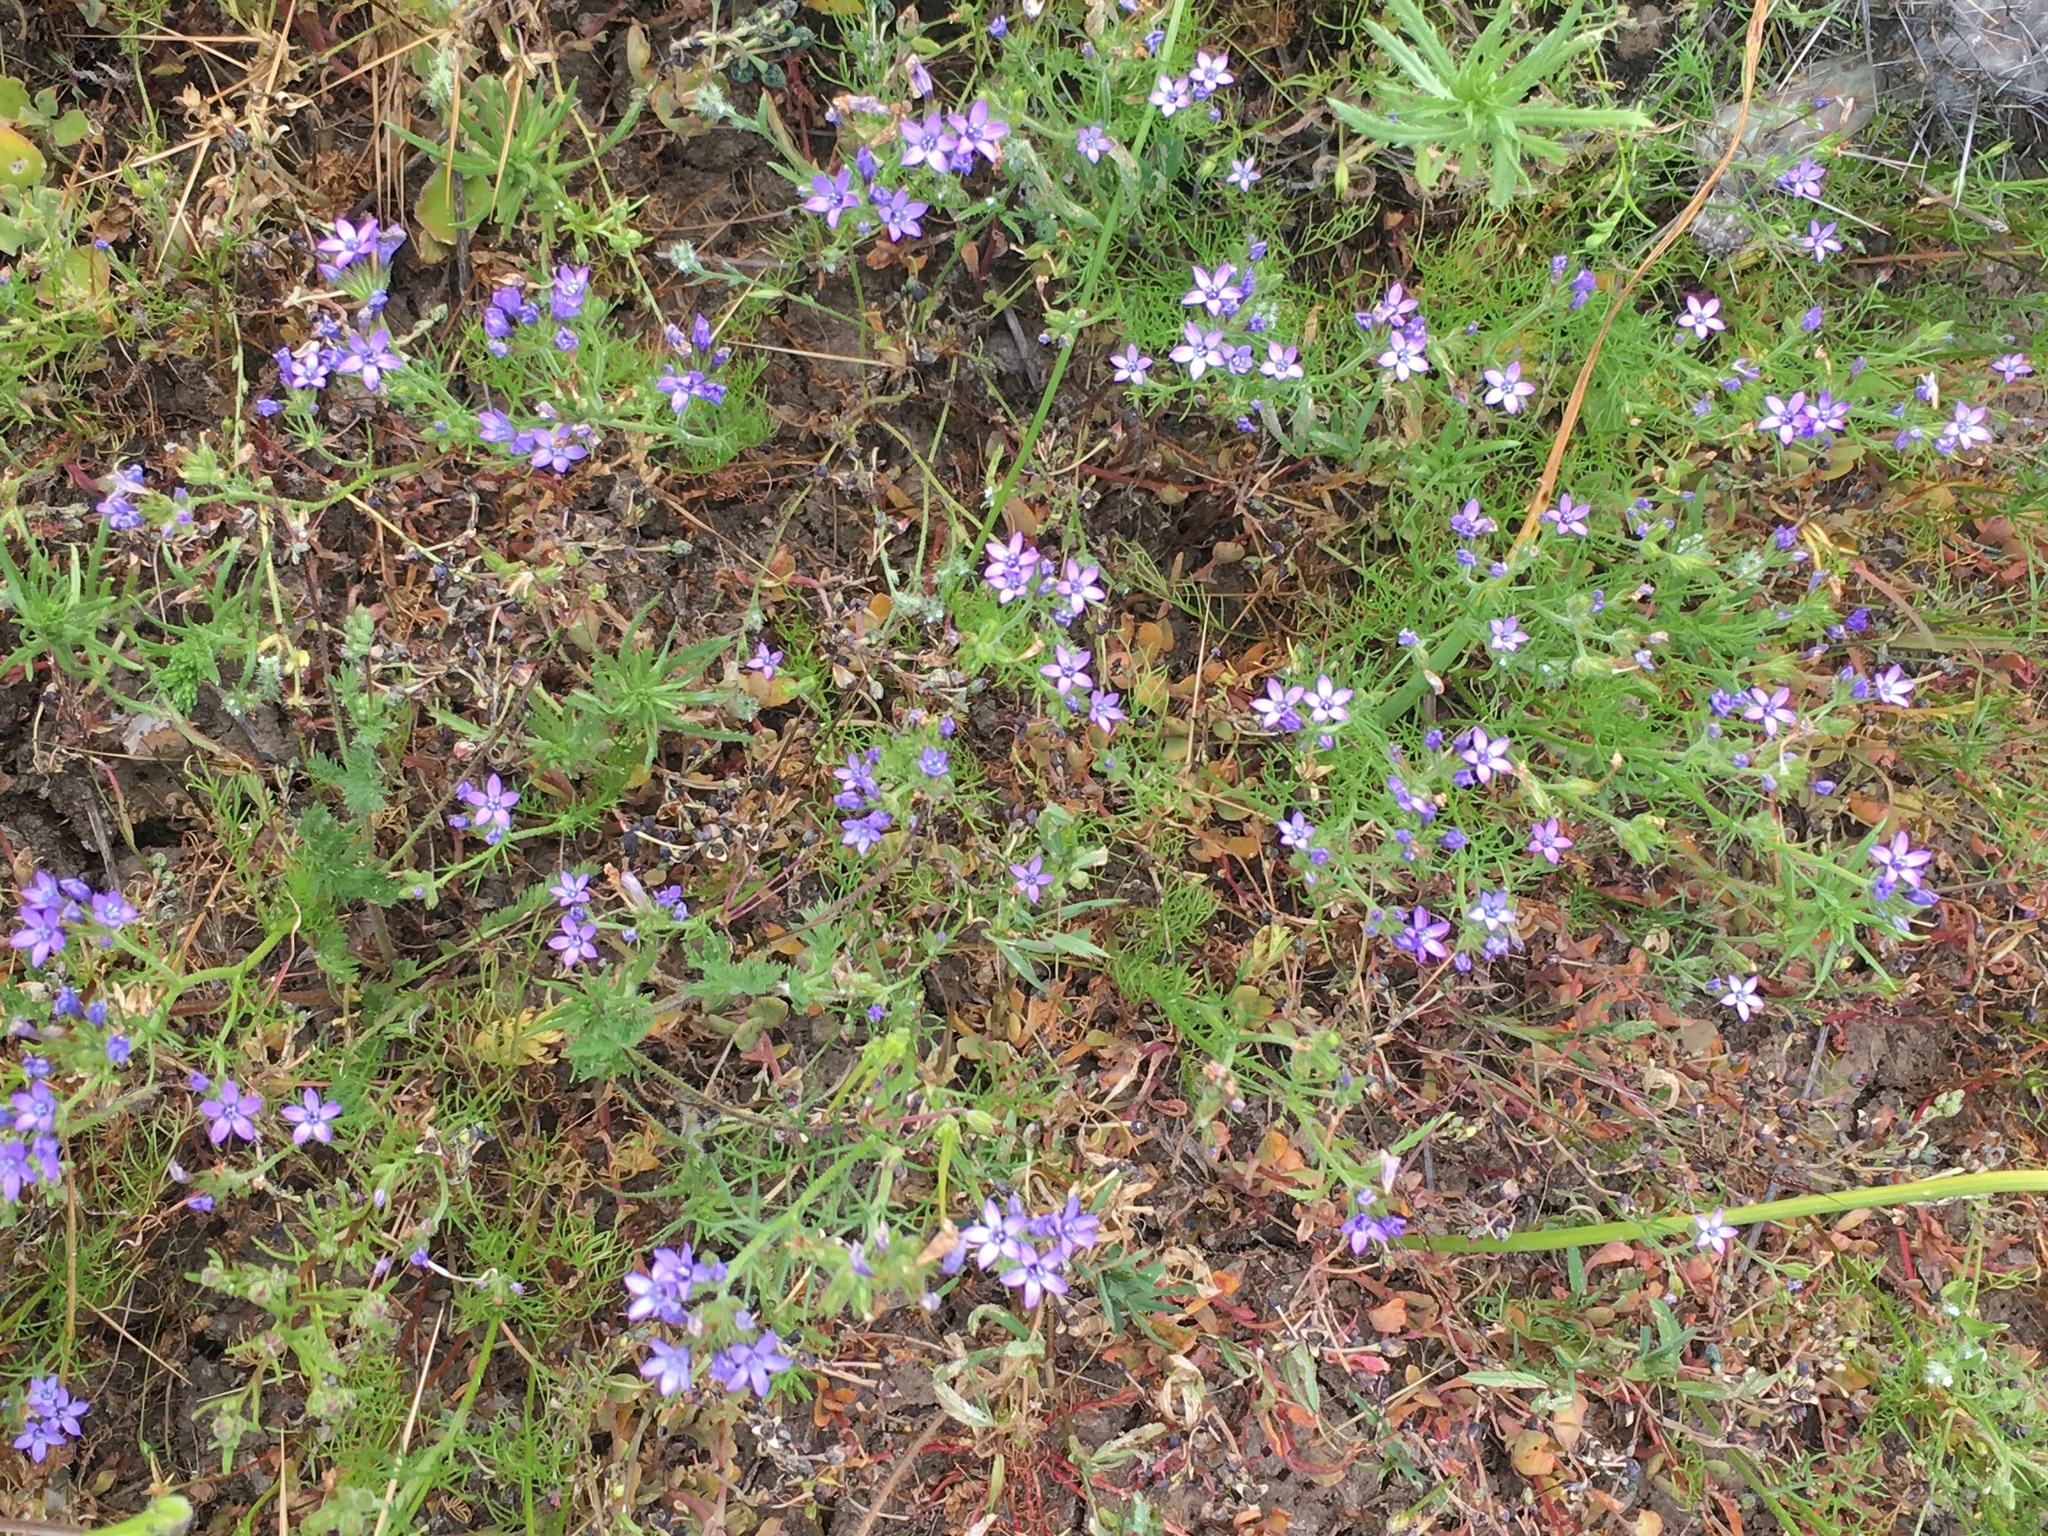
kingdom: Plantae
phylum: Tracheophyta
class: Magnoliopsida
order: Ericales
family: Polemoniaceae
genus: Gilia
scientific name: Gilia nevinii
